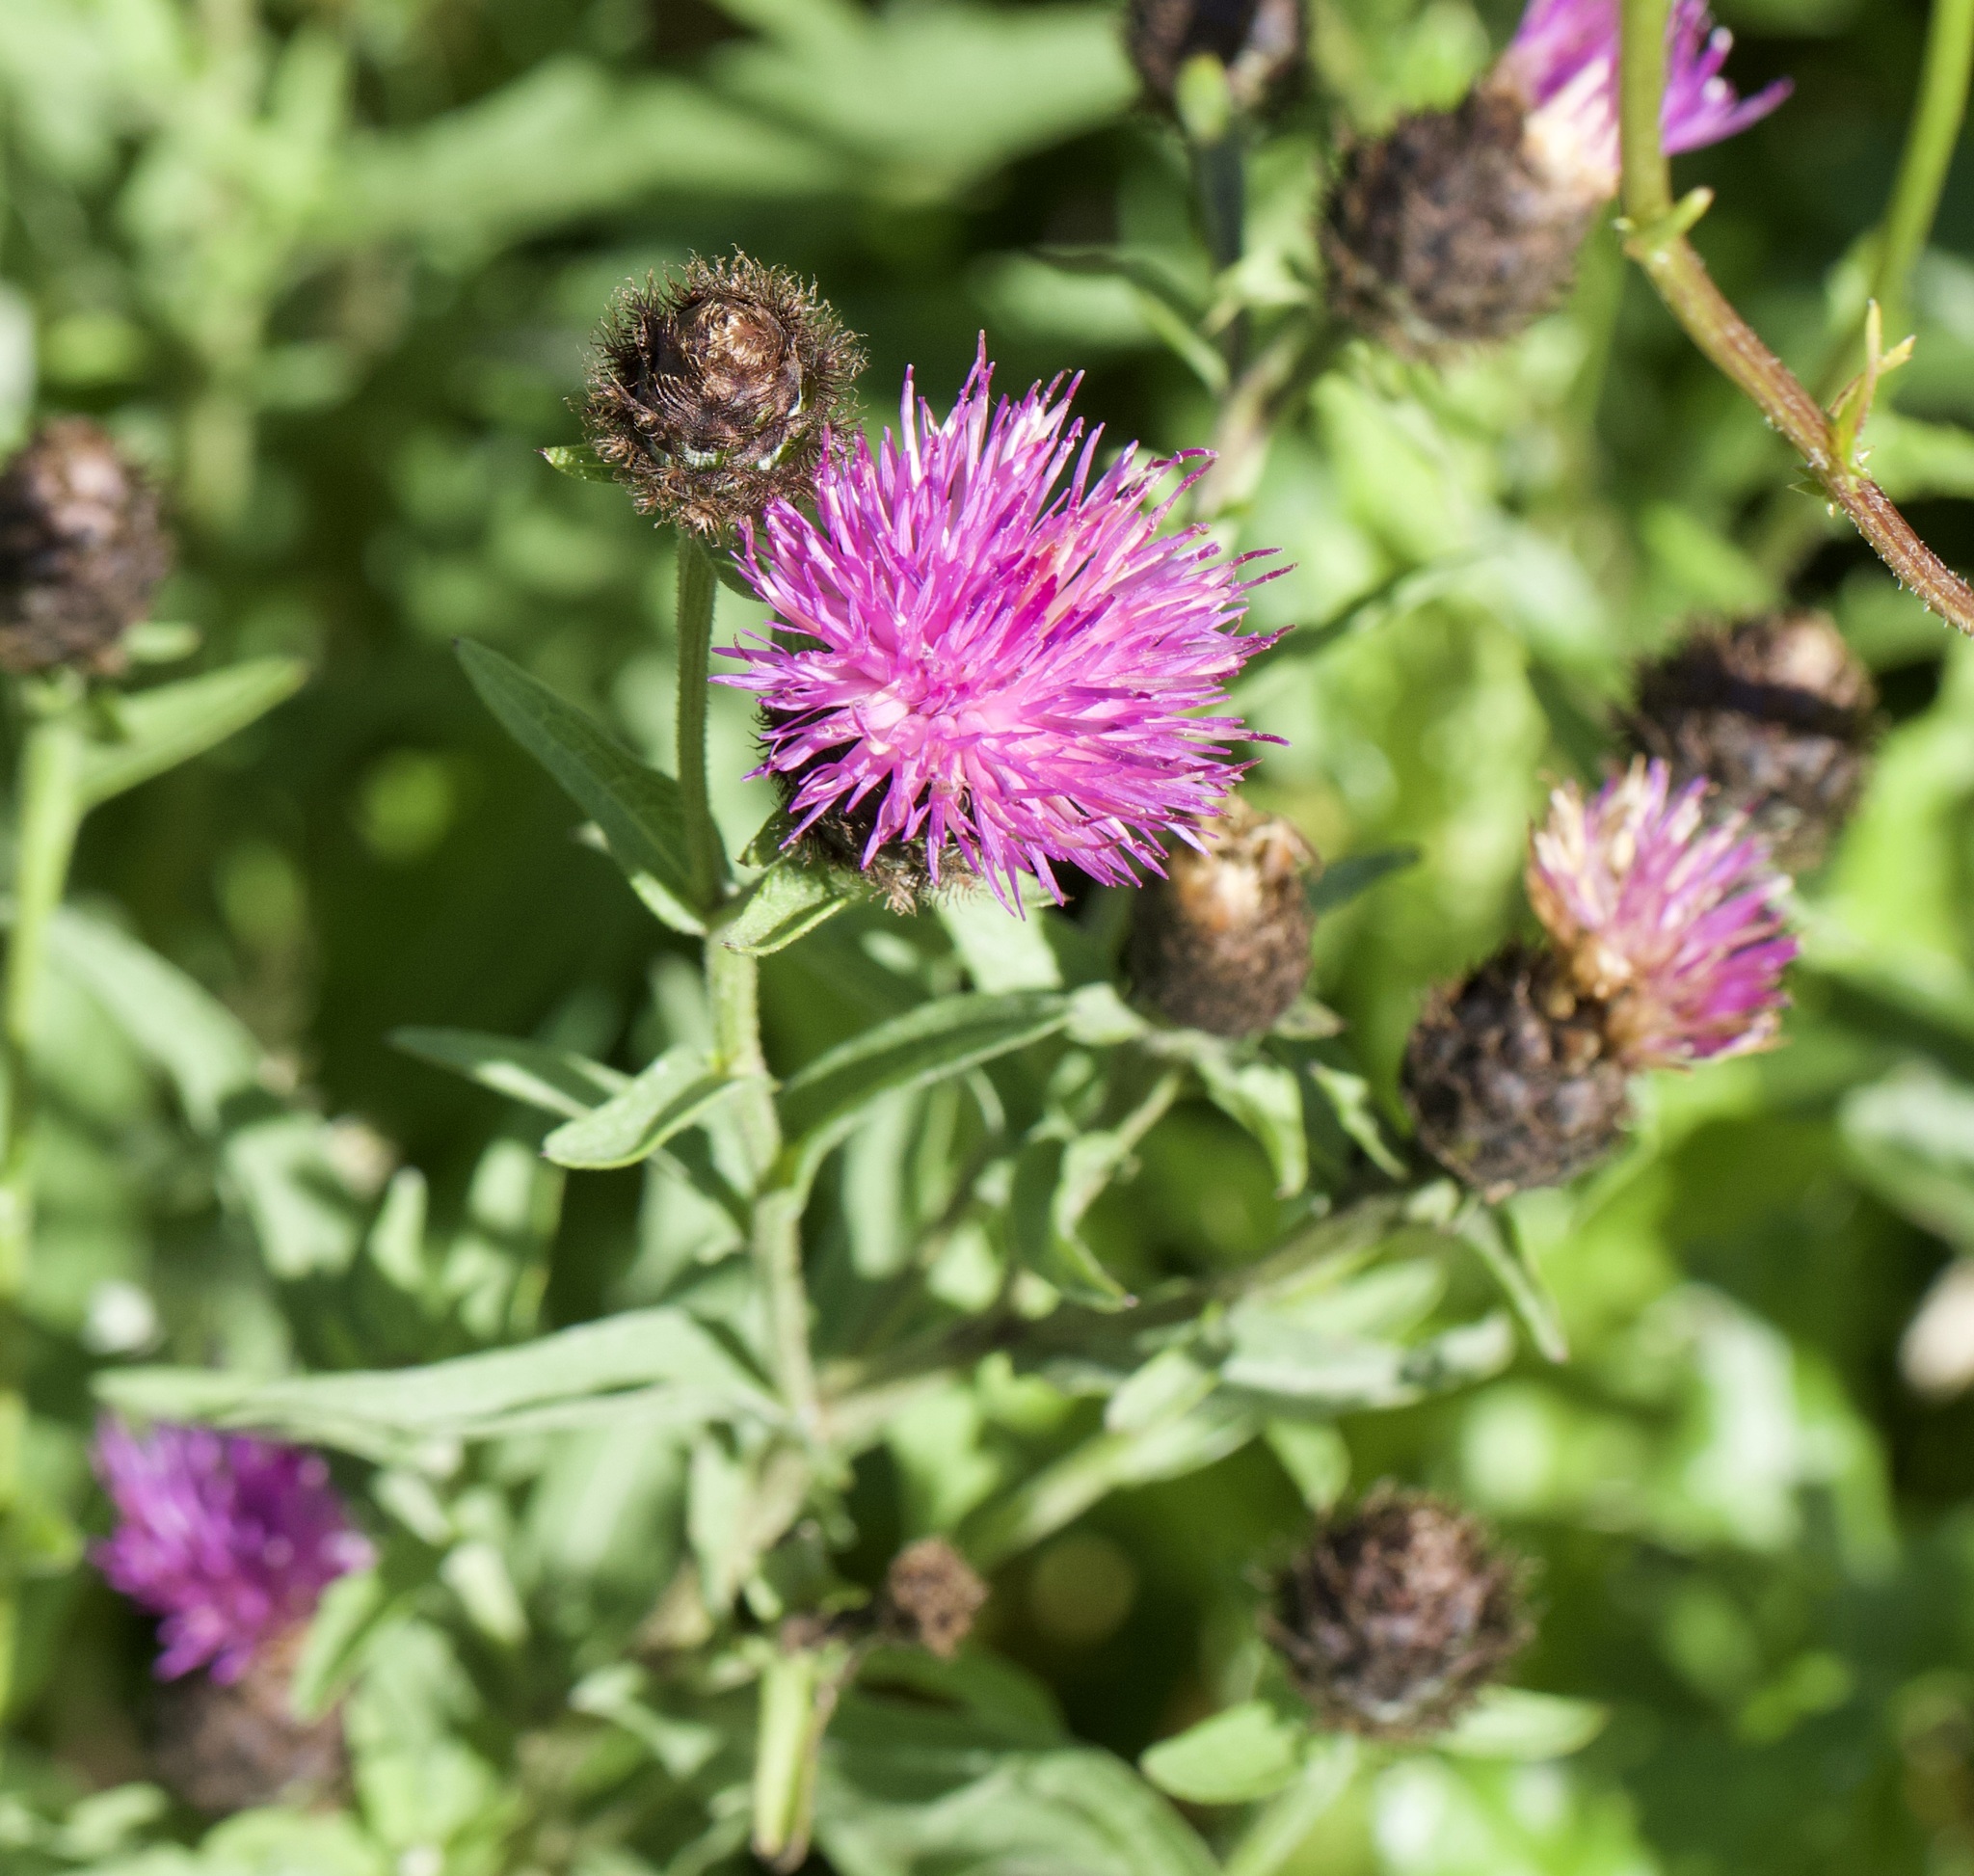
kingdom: Plantae
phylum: Tracheophyta
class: Magnoliopsida
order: Asterales
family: Asteraceae
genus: Centaurea
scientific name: Centaurea nigra
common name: Lesser knapweed
